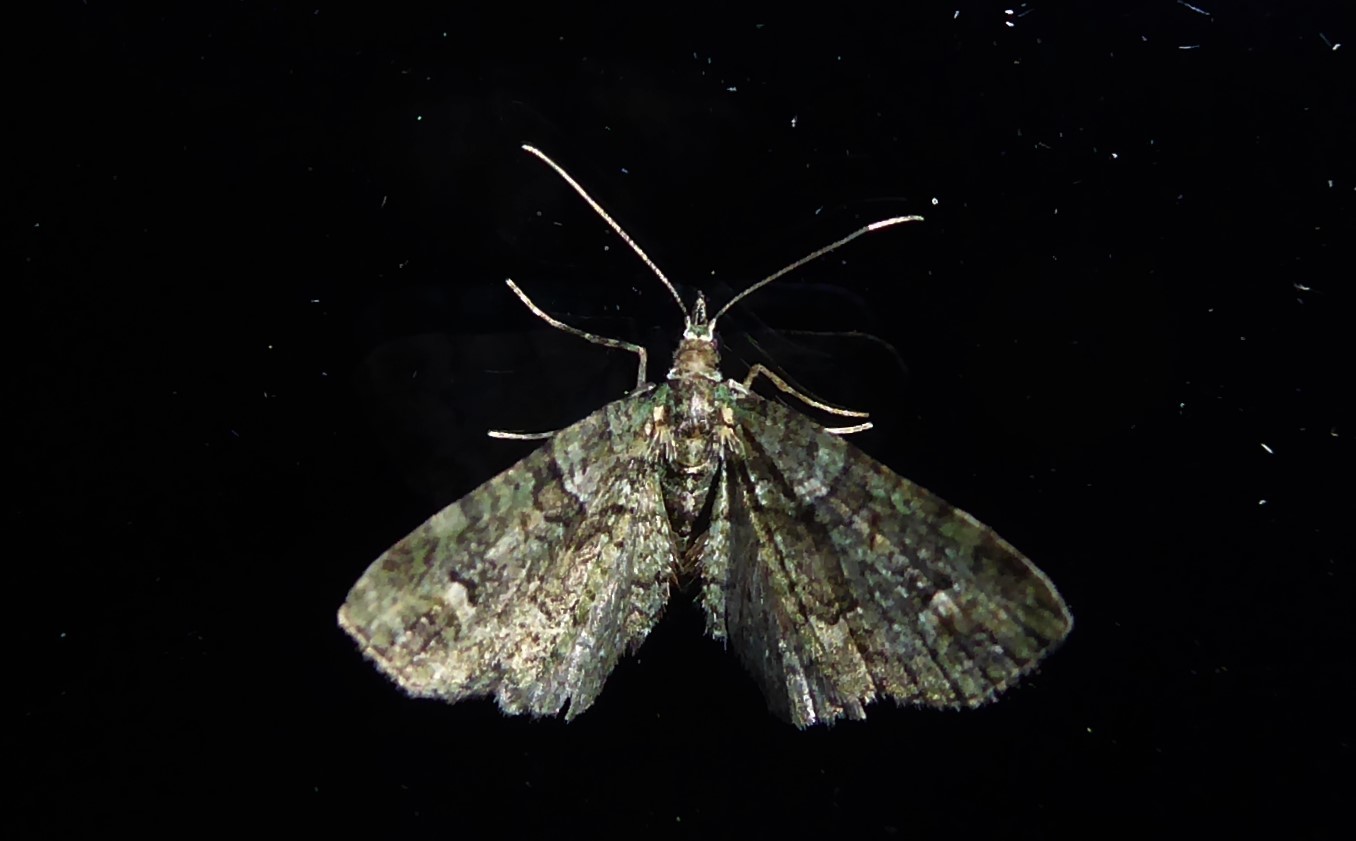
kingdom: Animalia
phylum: Arthropoda
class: Insecta
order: Lepidoptera
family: Geometridae
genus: Idaea
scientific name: Idaea mutanda
